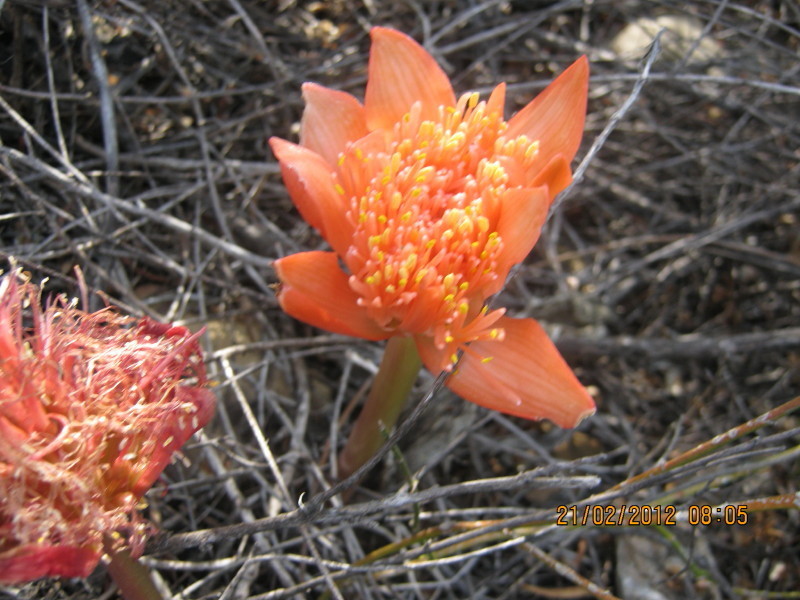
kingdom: Plantae
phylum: Tracheophyta
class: Liliopsida
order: Asparagales
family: Amaryllidaceae
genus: Haemanthus
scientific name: Haemanthus sanguineus
